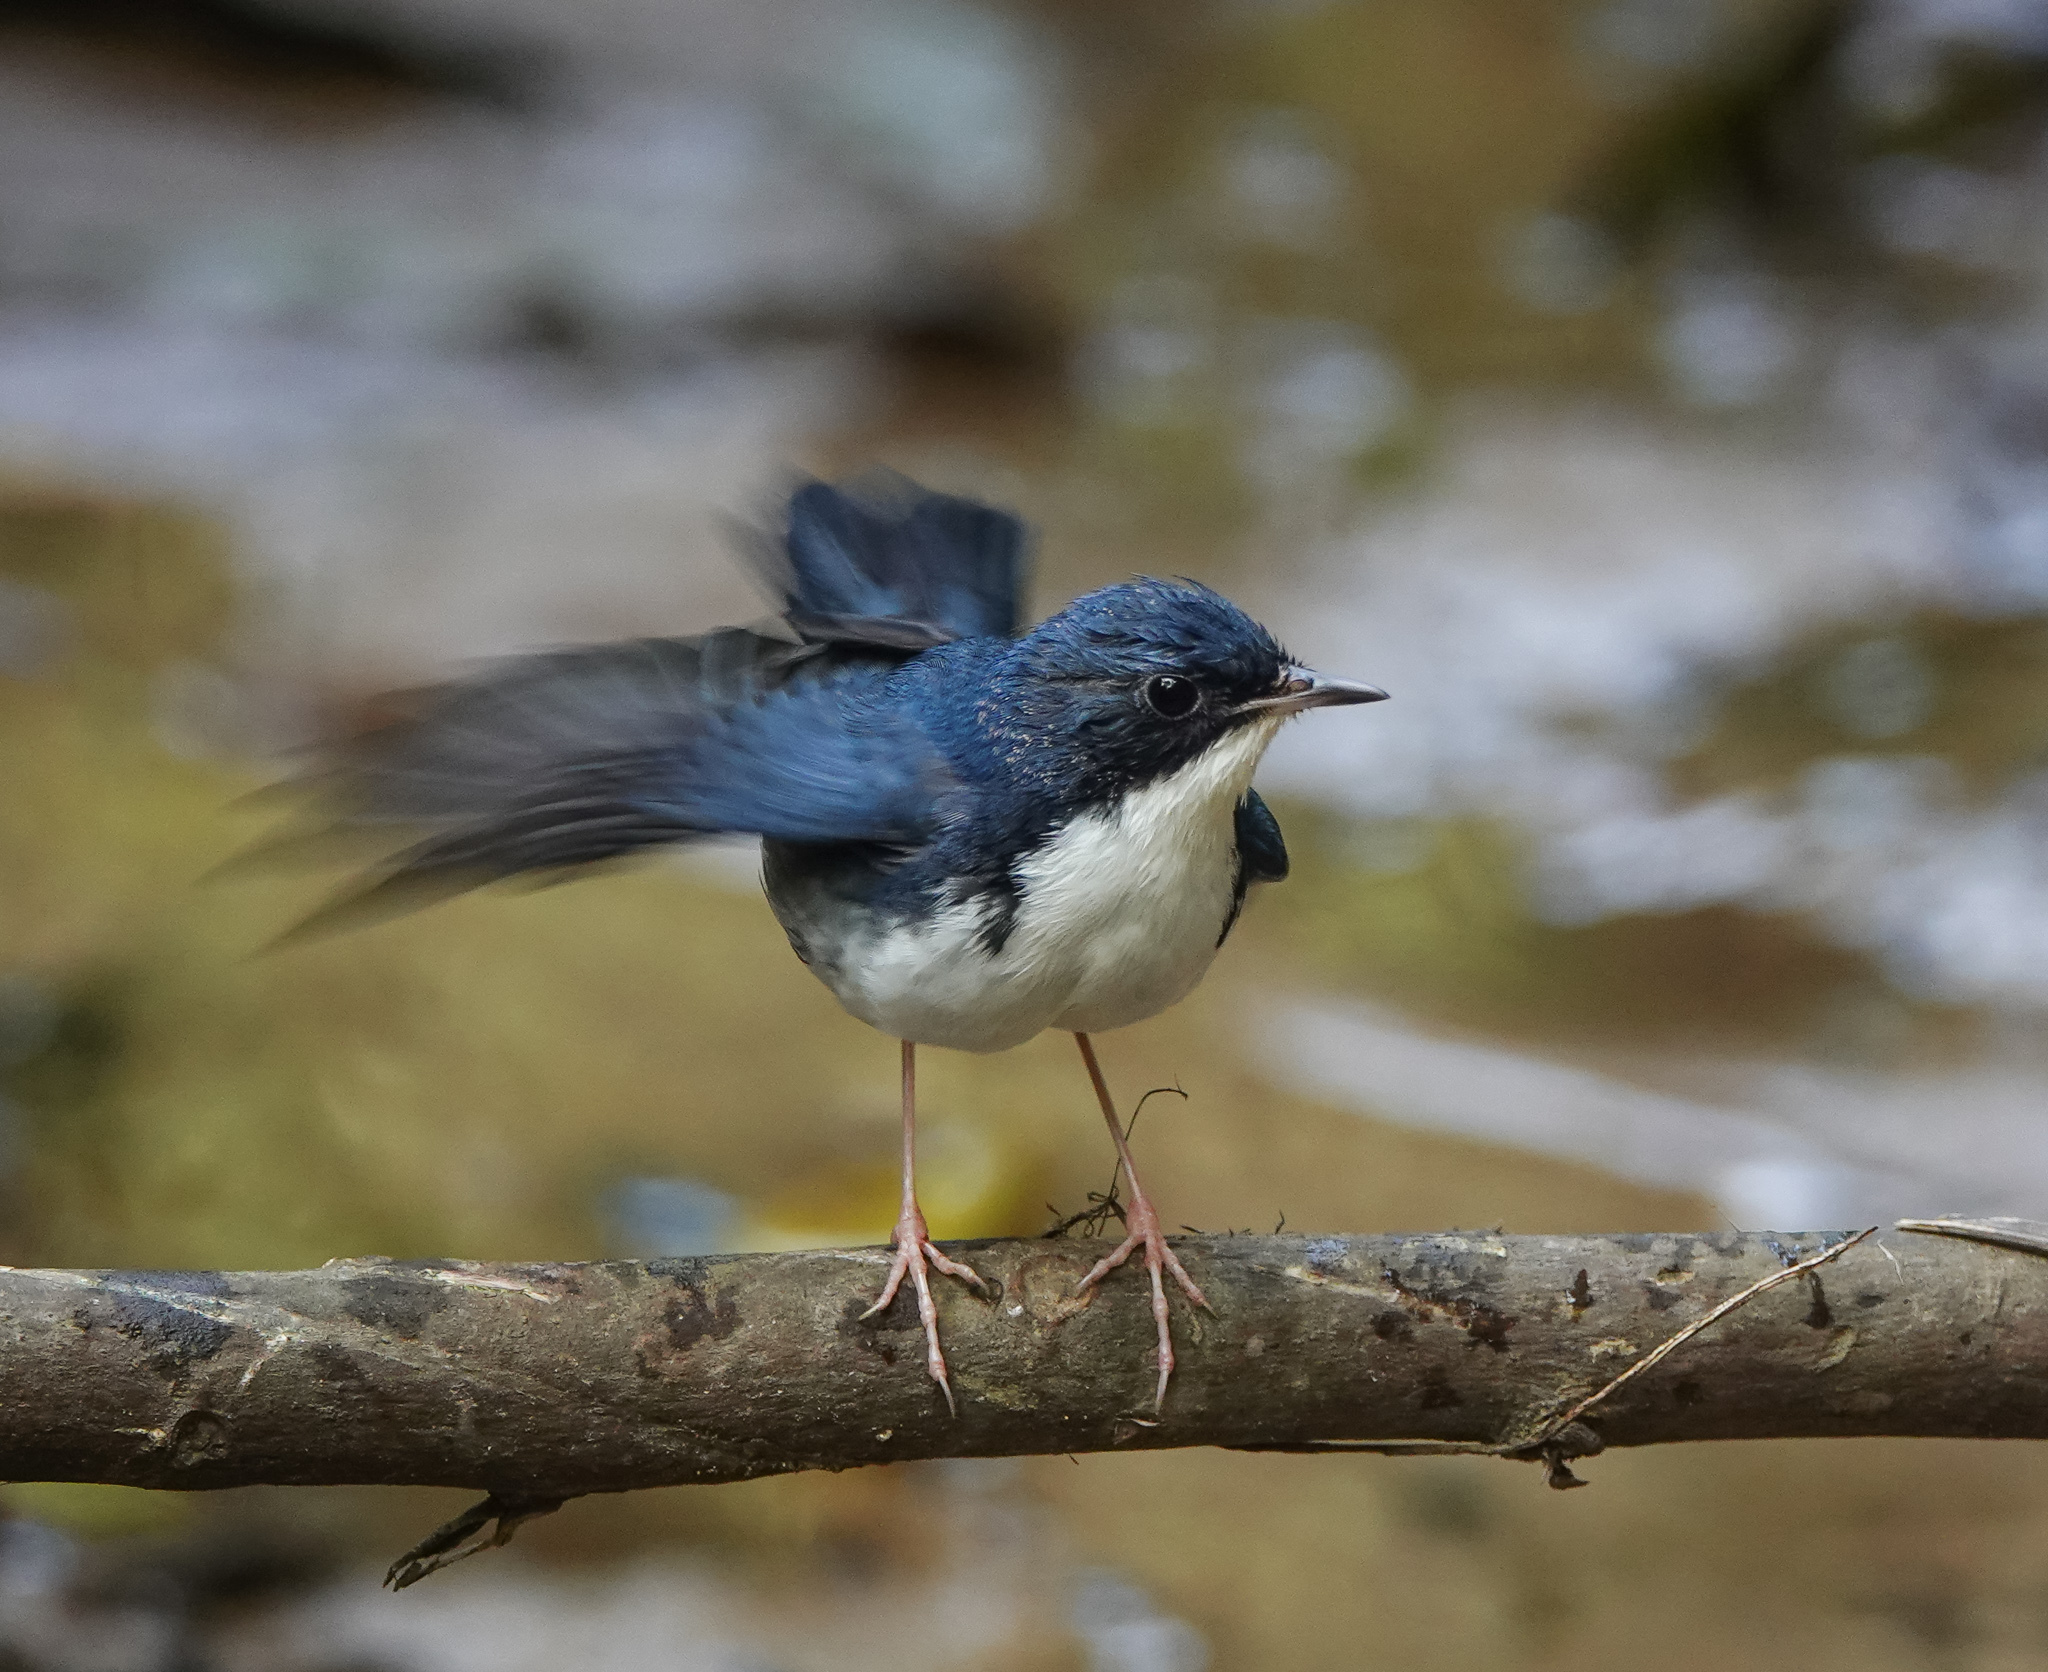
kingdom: Animalia
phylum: Chordata
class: Aves
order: Passeriformes
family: Muscicapidae
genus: Luscinia
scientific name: Luscinia cyane
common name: Siberian blue robin
